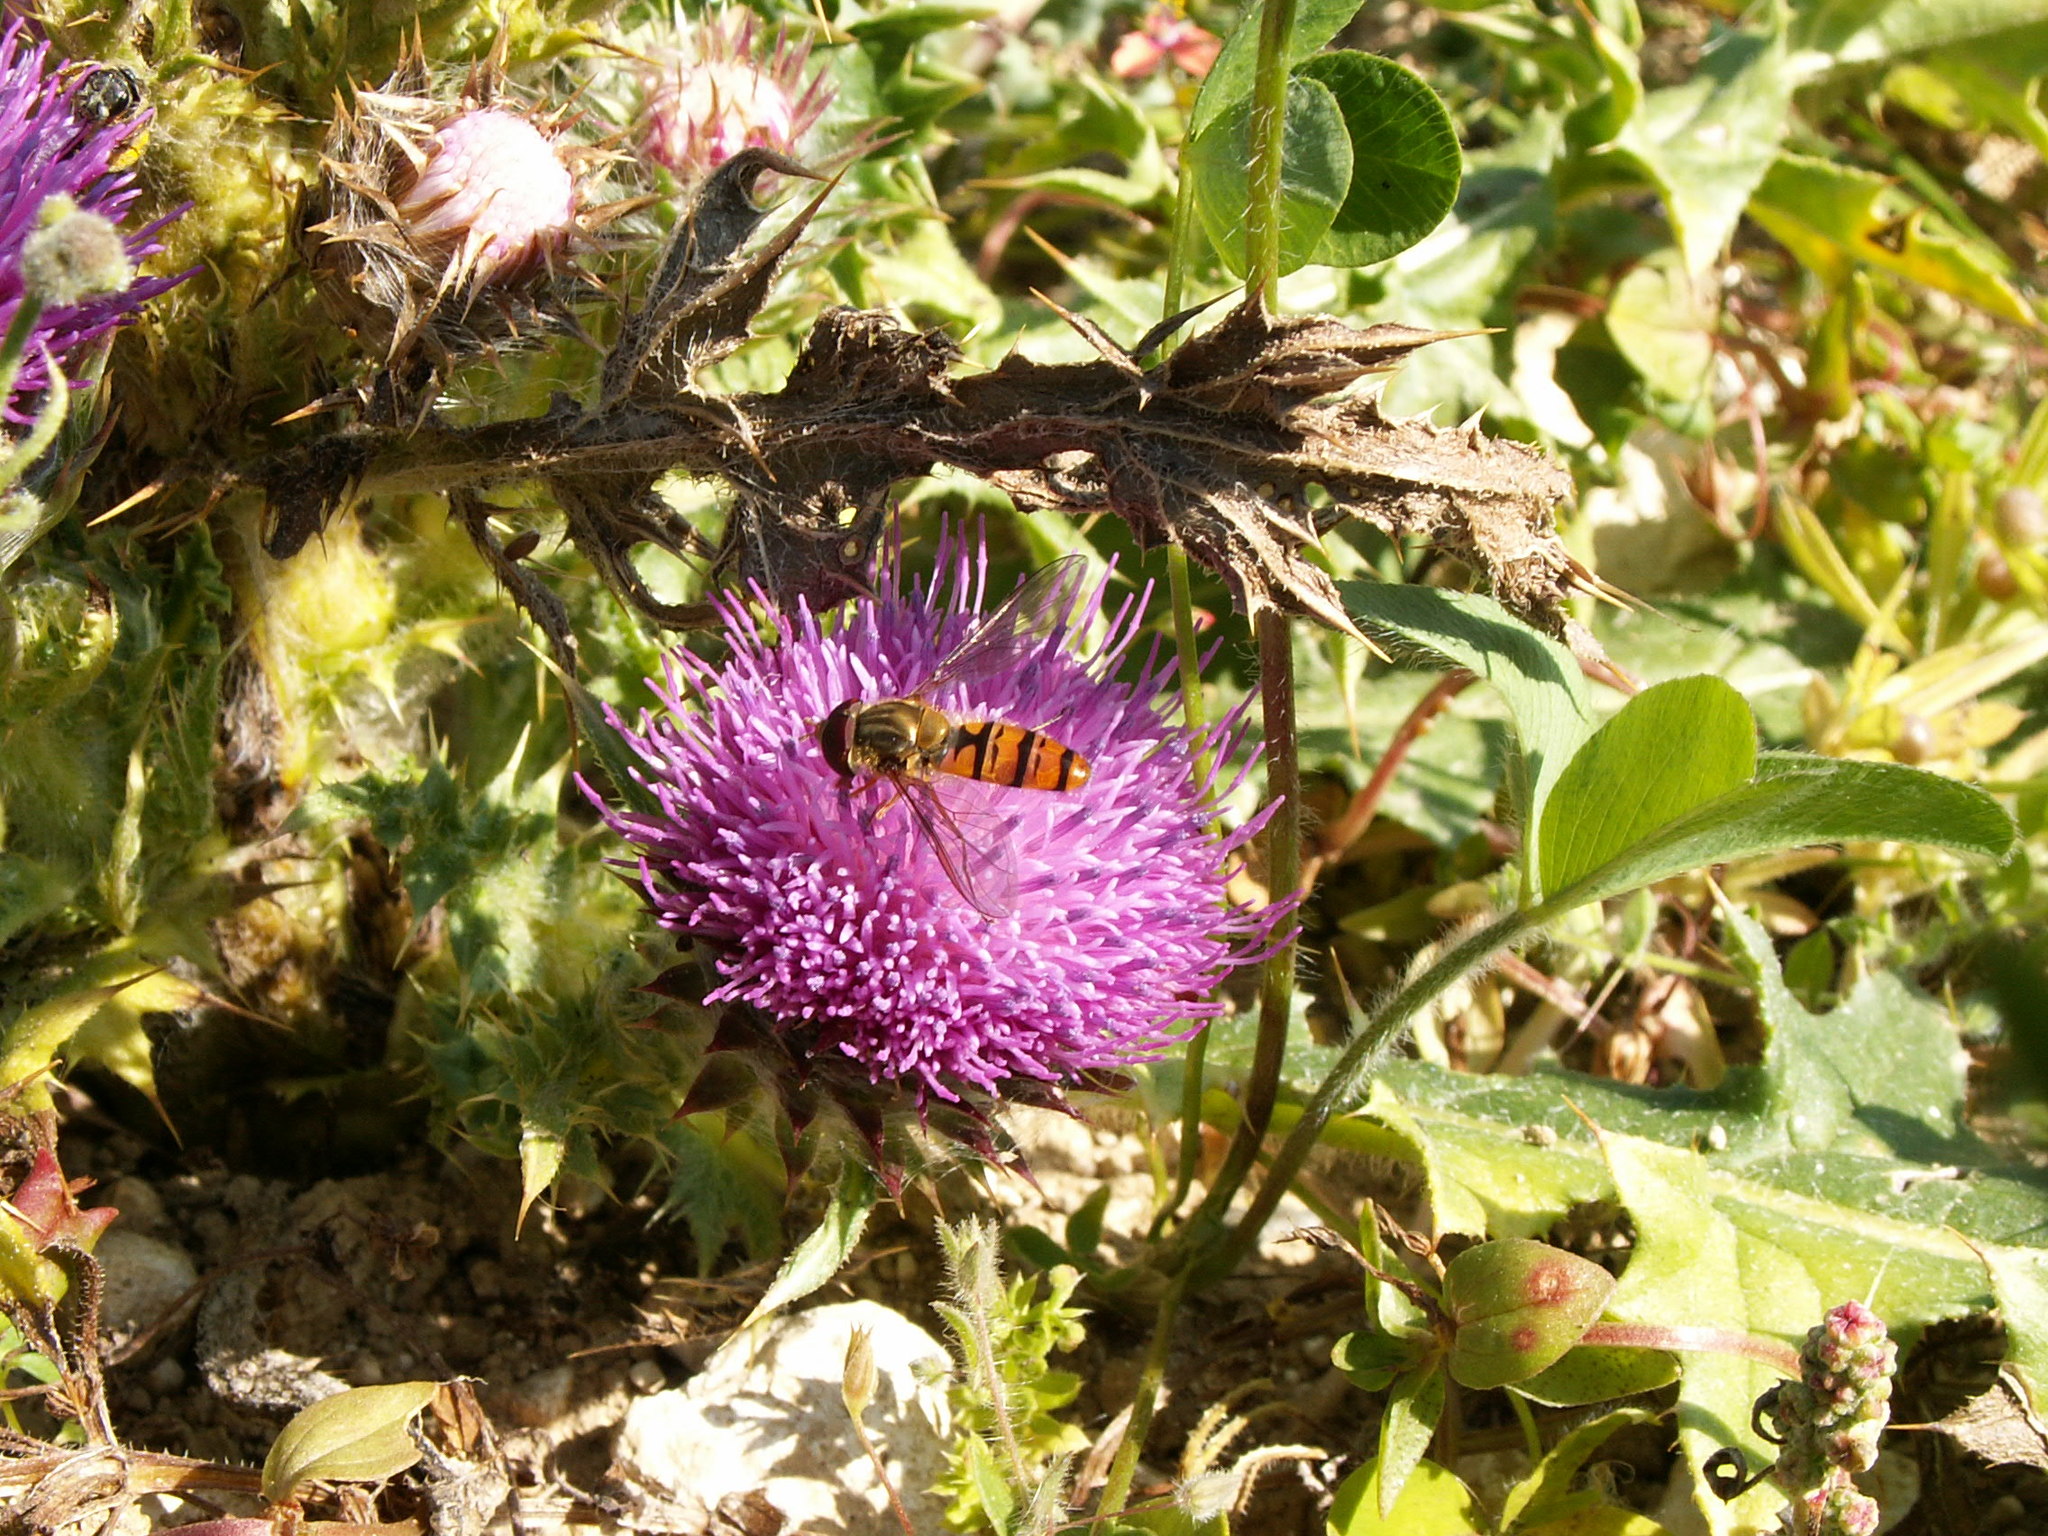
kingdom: Animalia
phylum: Arthropoda
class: Insecta
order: Diptera
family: Syrphidae
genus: Episyrphus
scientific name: Episyrphus balteatus
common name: Marmalade hoverfly
